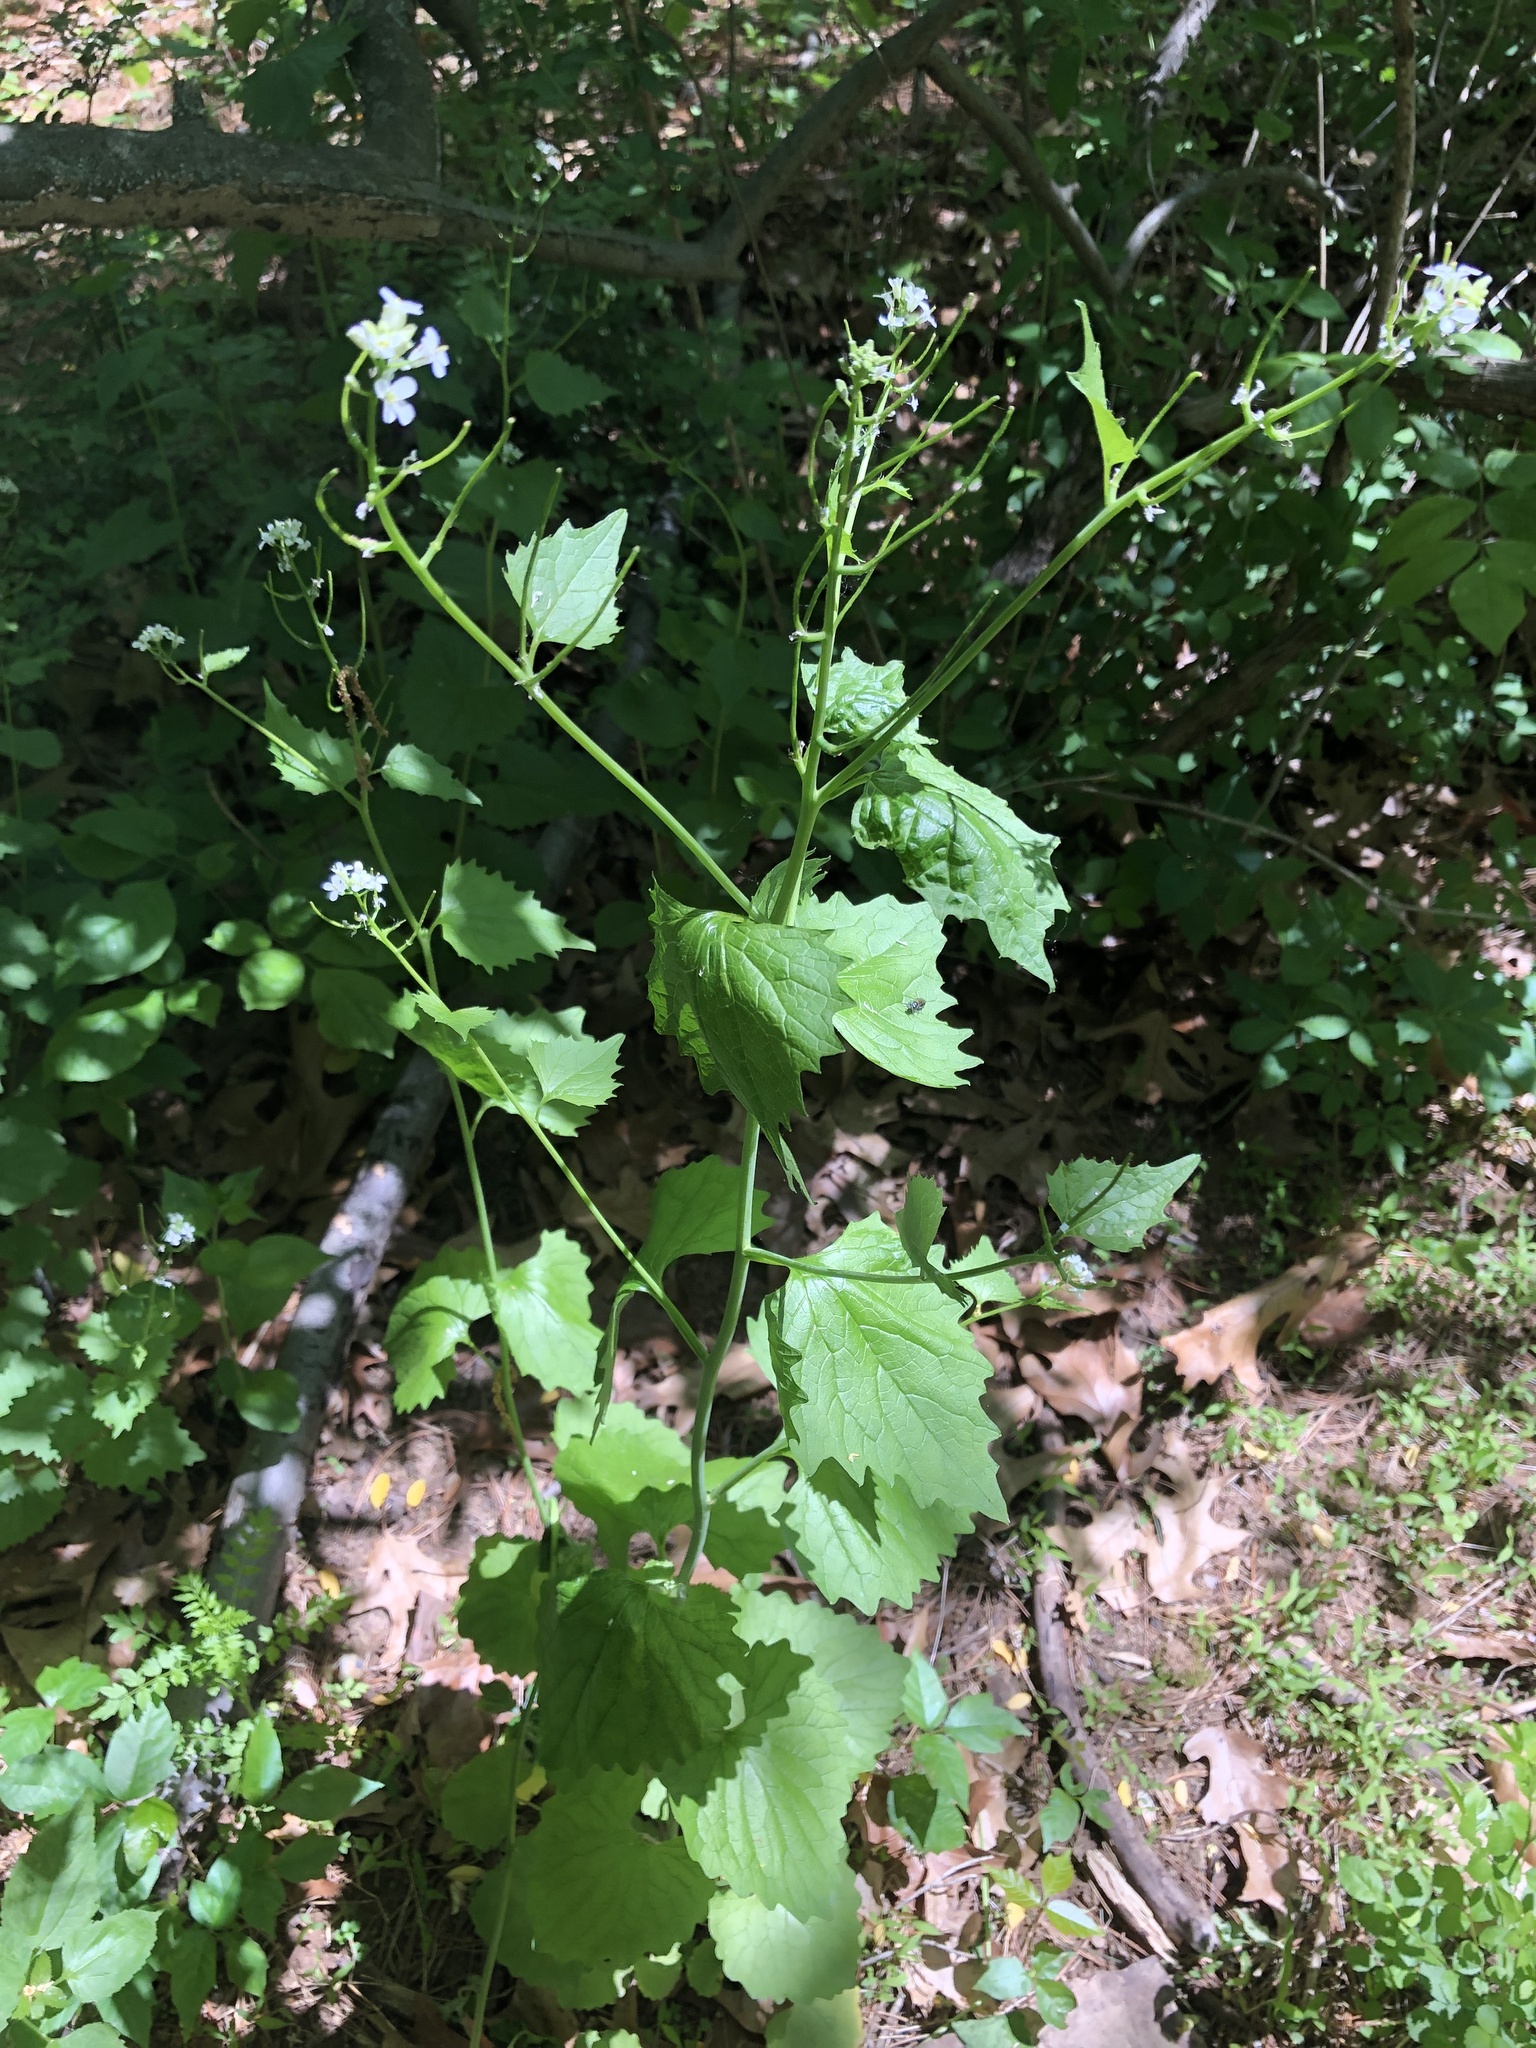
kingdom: Plantae
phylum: Tracheophyta
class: Magnoliopsida
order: Brassicales
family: Brassicaceae
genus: Alliaria
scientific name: Alliaria petiolata
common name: Garlic mustard
